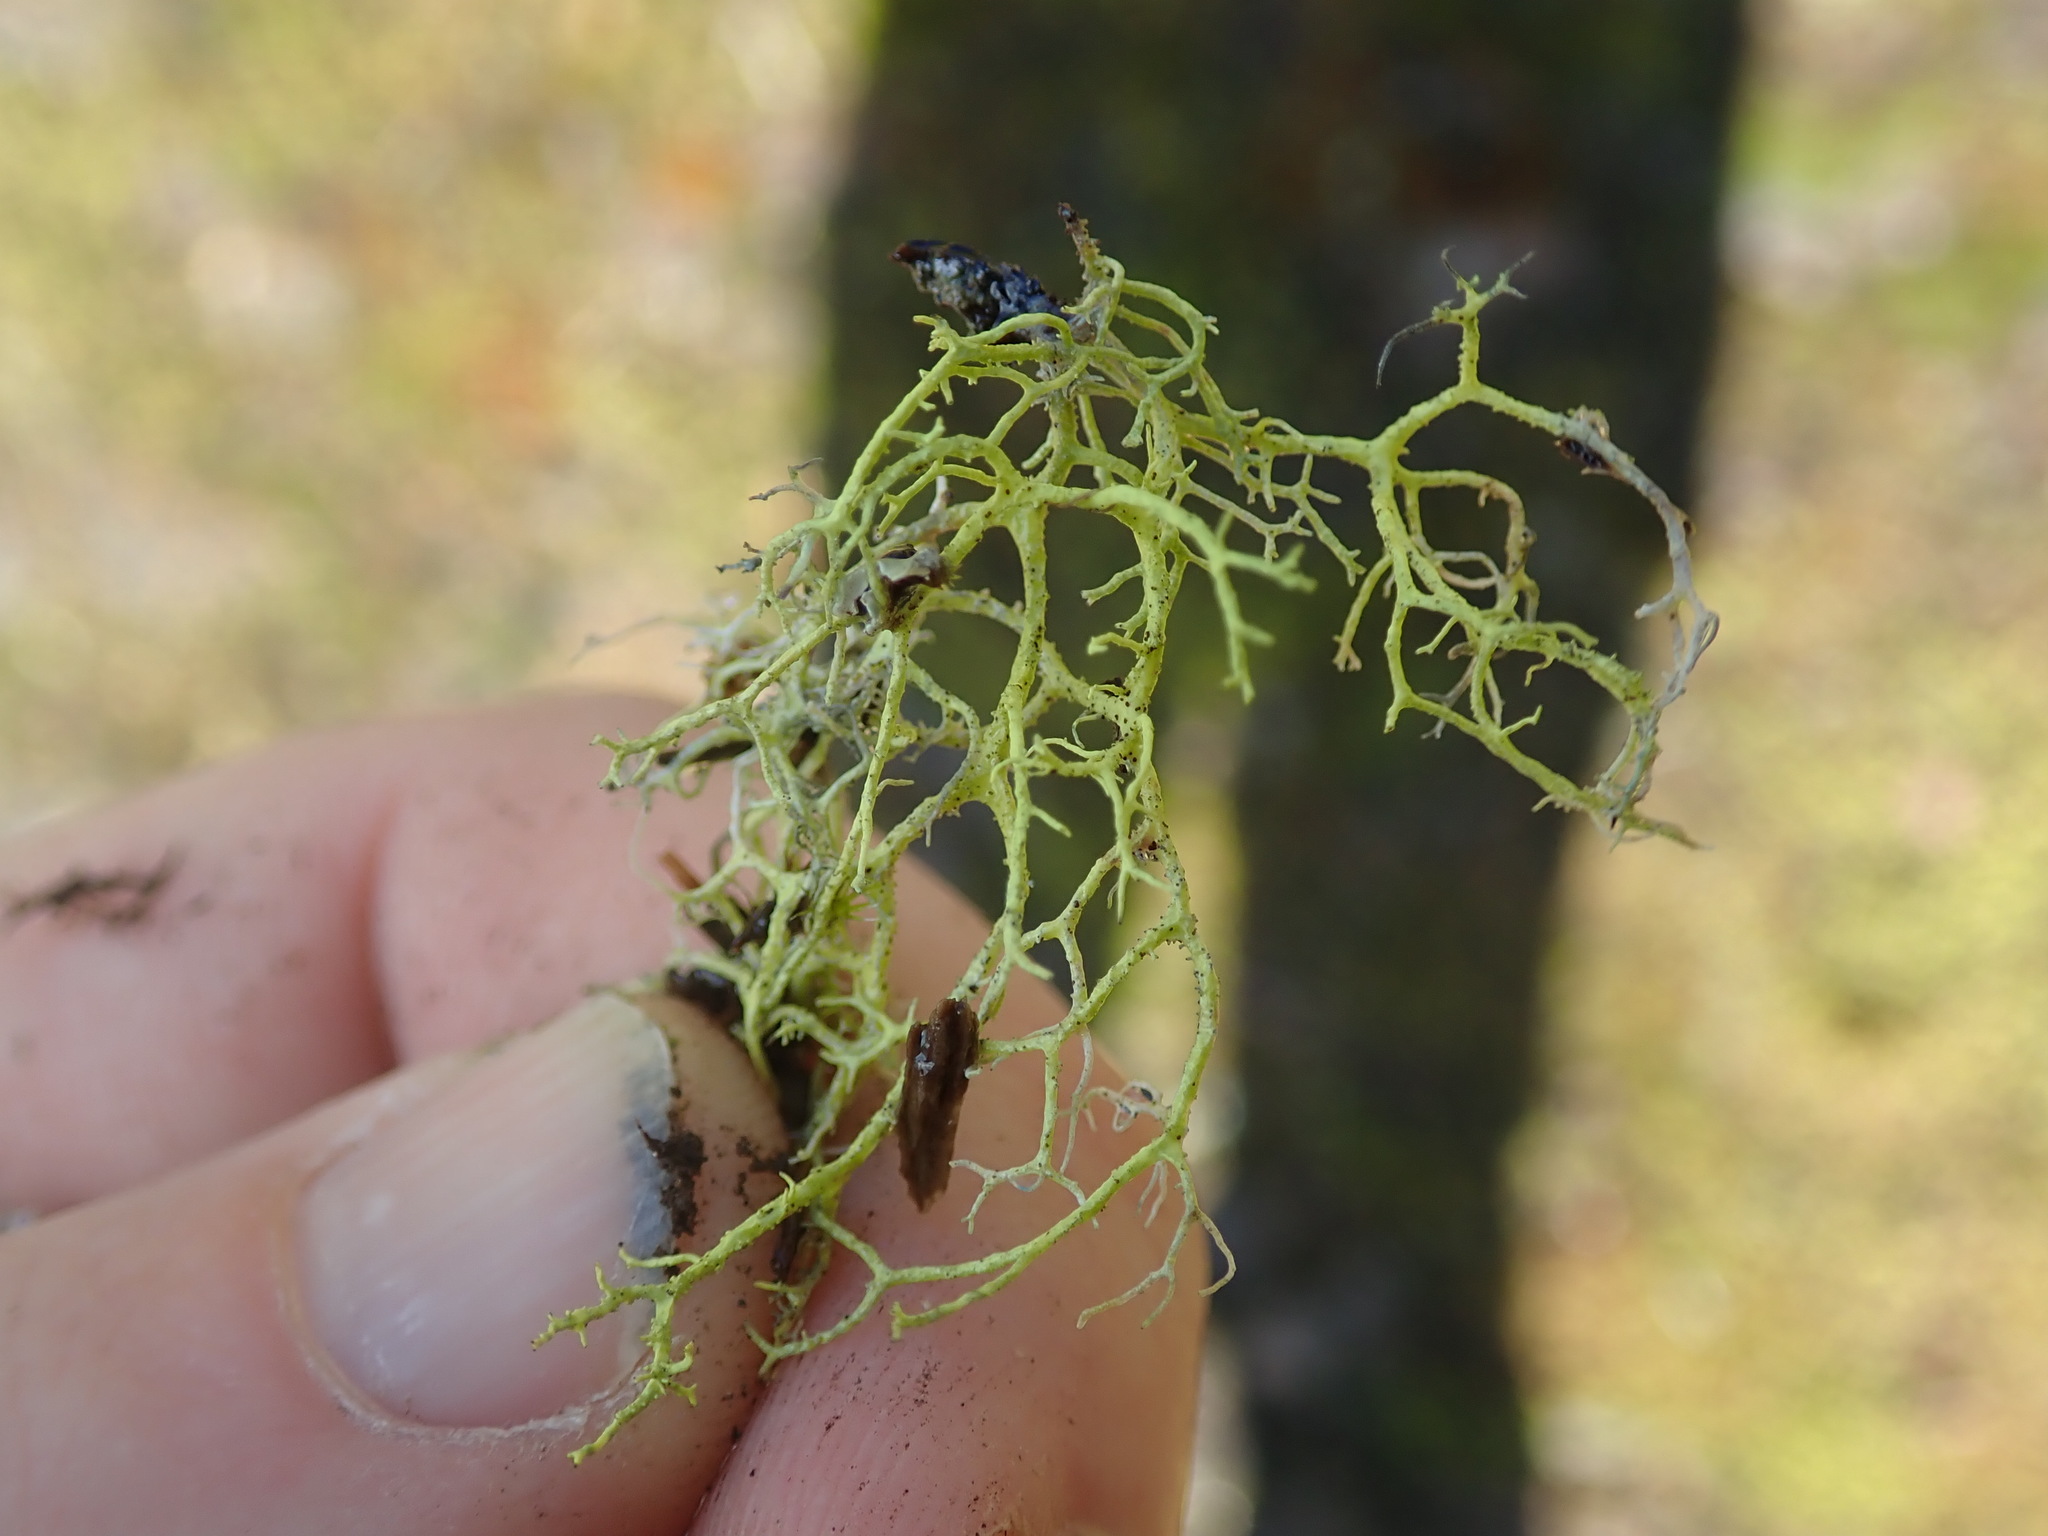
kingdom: Fungi
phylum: Ascomycota
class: Lecanoromycetes
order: Lecanorales
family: Parmeliaceae
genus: Letharia
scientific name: Letharia vulpina
